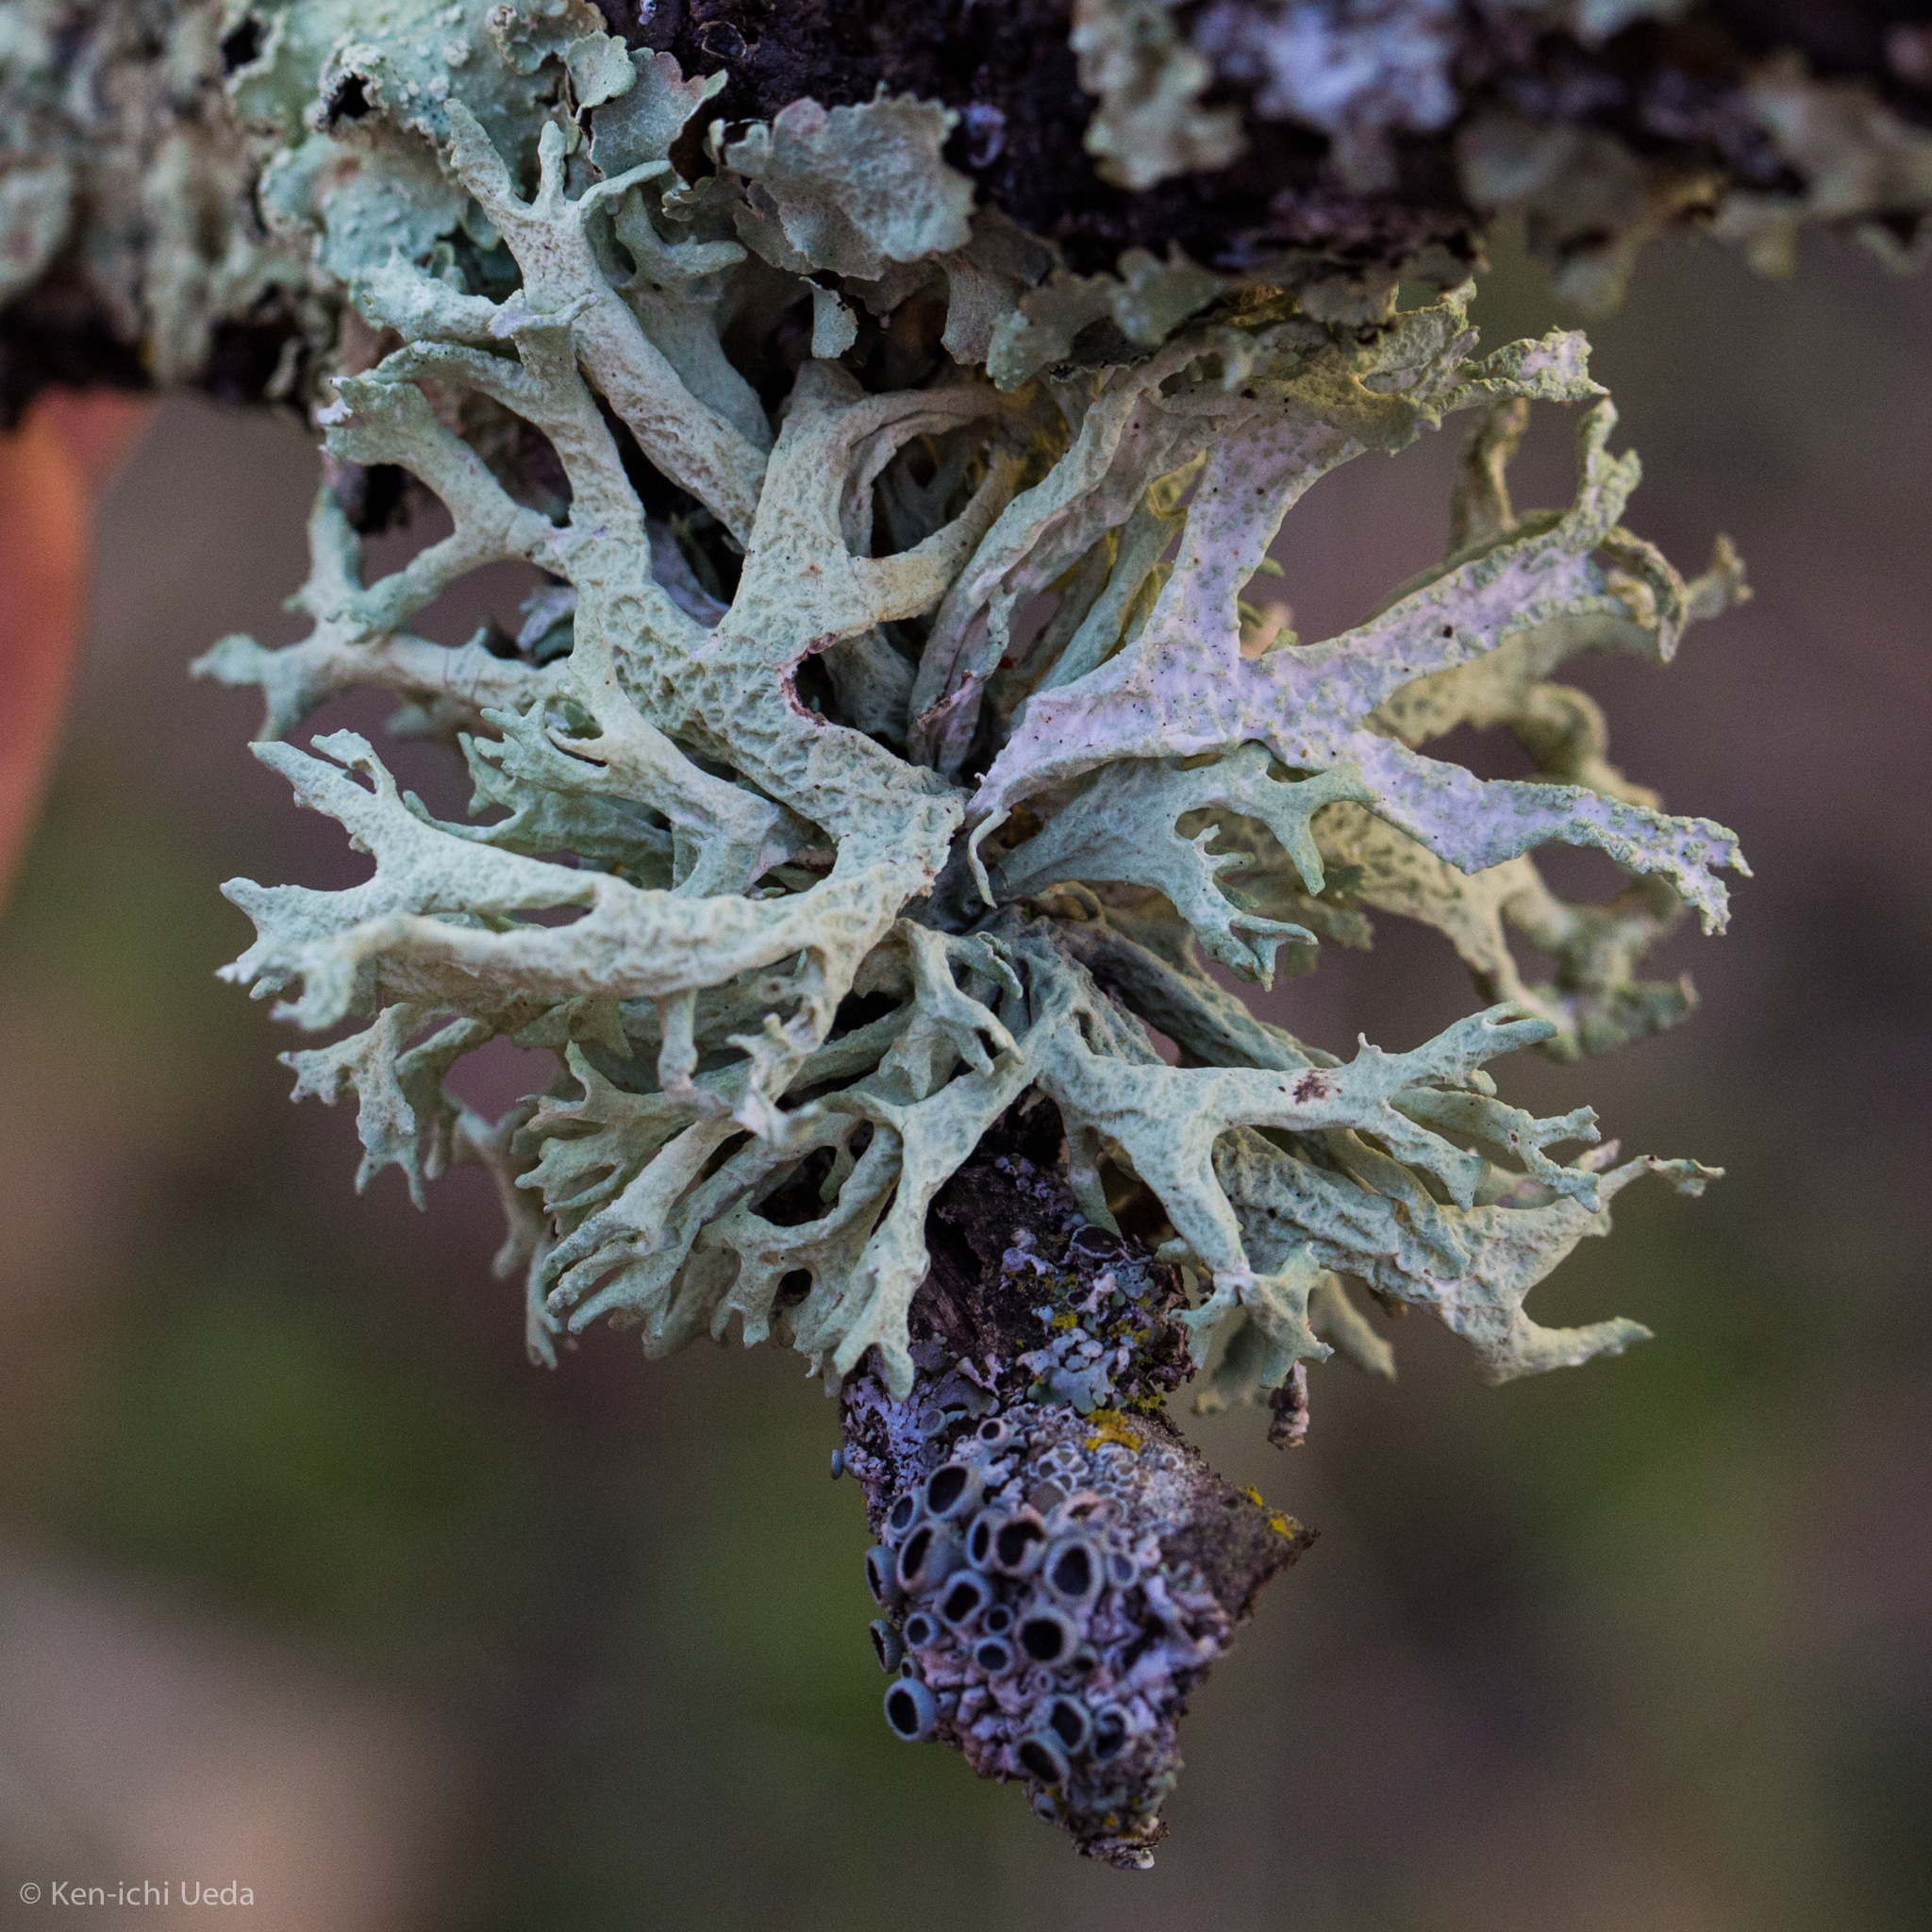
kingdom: Fungi
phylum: Ascomycota
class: Lecanoromycetes
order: Lecanorales
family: Parmeliaceae
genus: Evernia
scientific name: Evernia prunastri
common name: Oak moss
